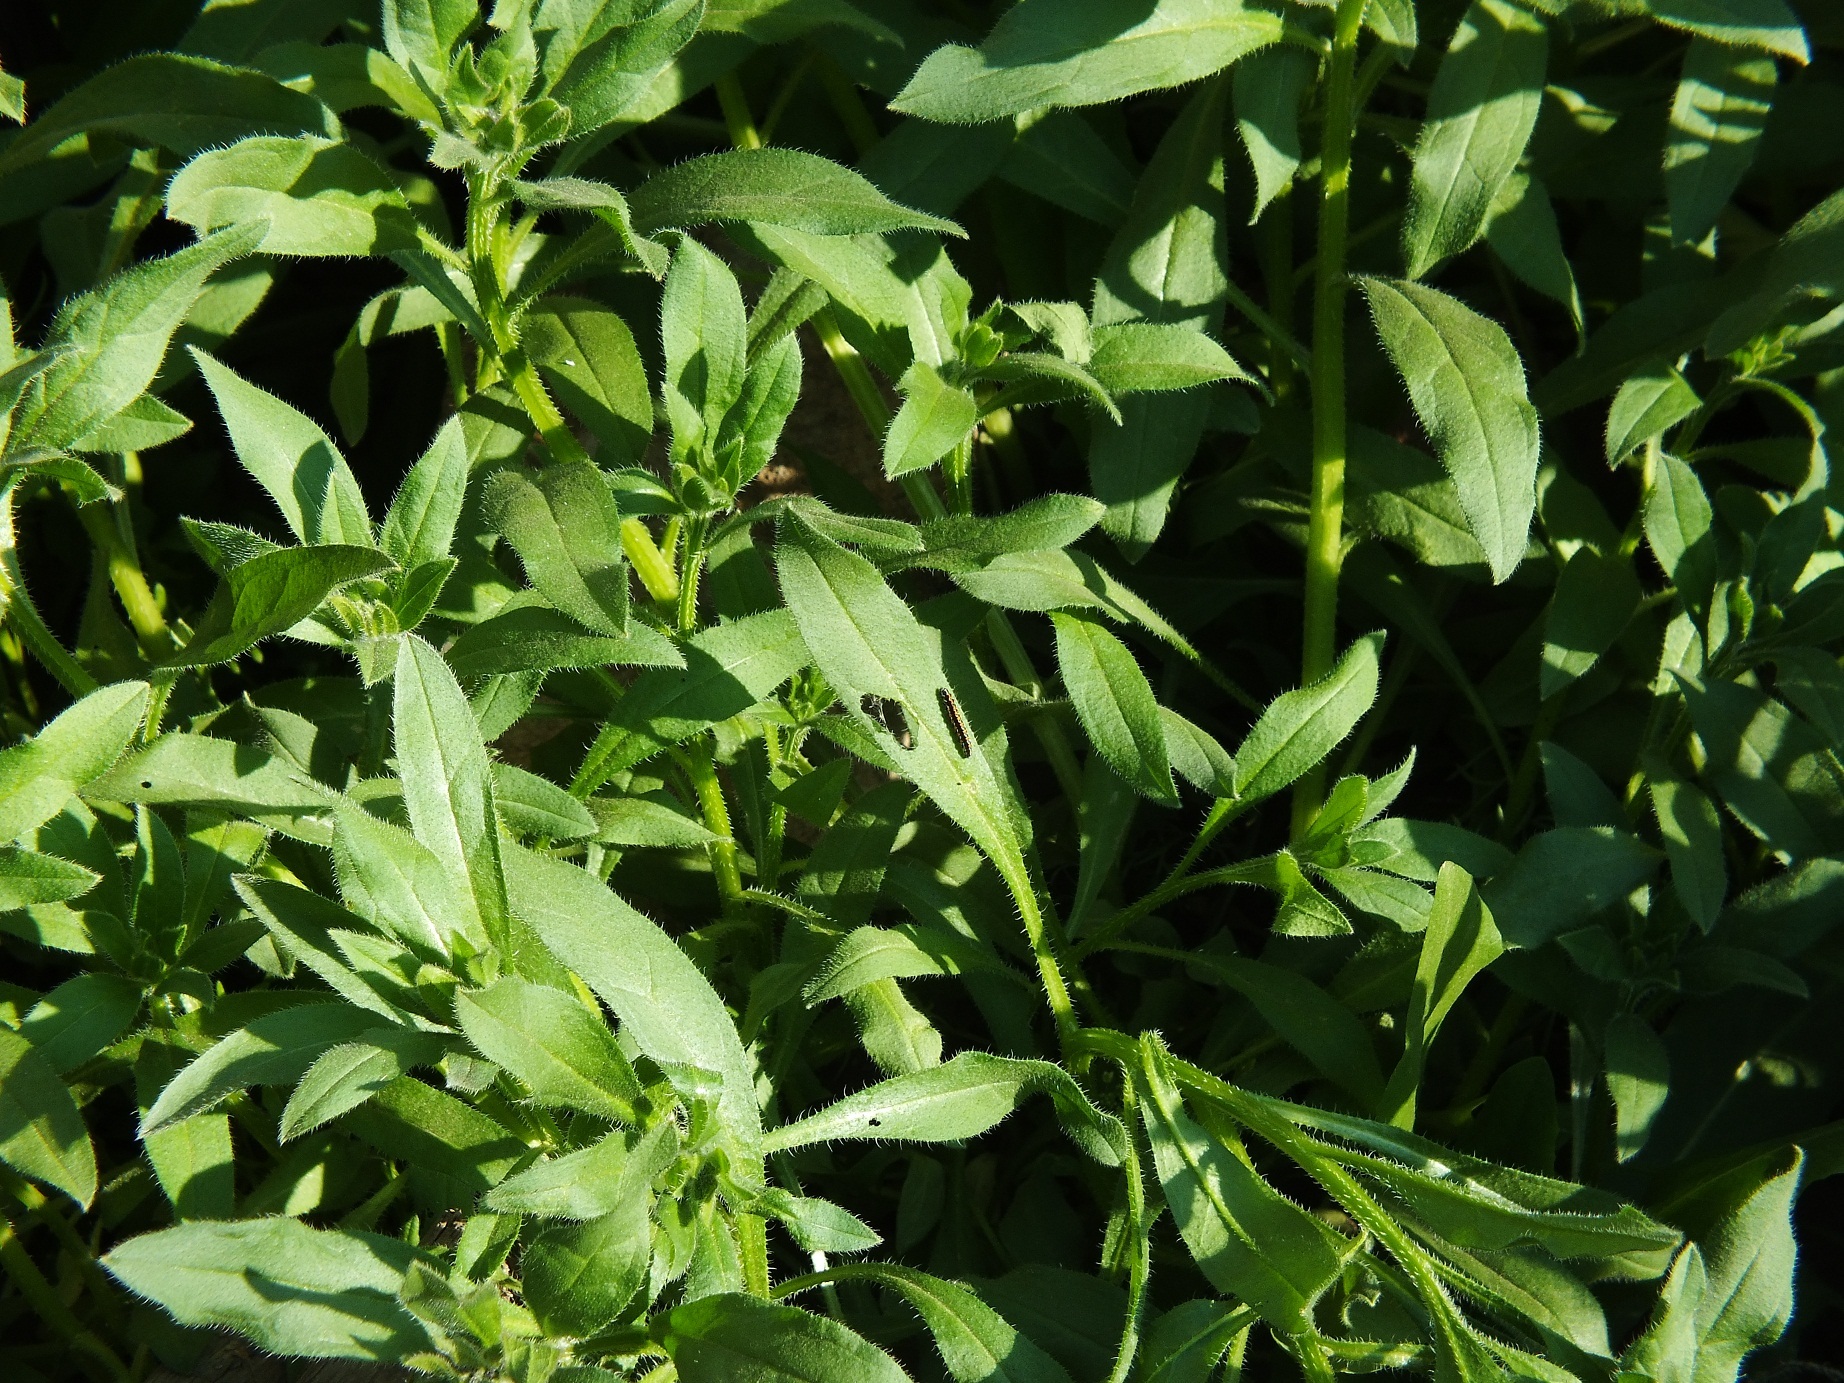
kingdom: Plantae
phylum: Tracheophyta
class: Magnoliopsida
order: Boraginales
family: Boraginaceae
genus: Asperugo
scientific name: Asperugo procumbens
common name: Madwort
